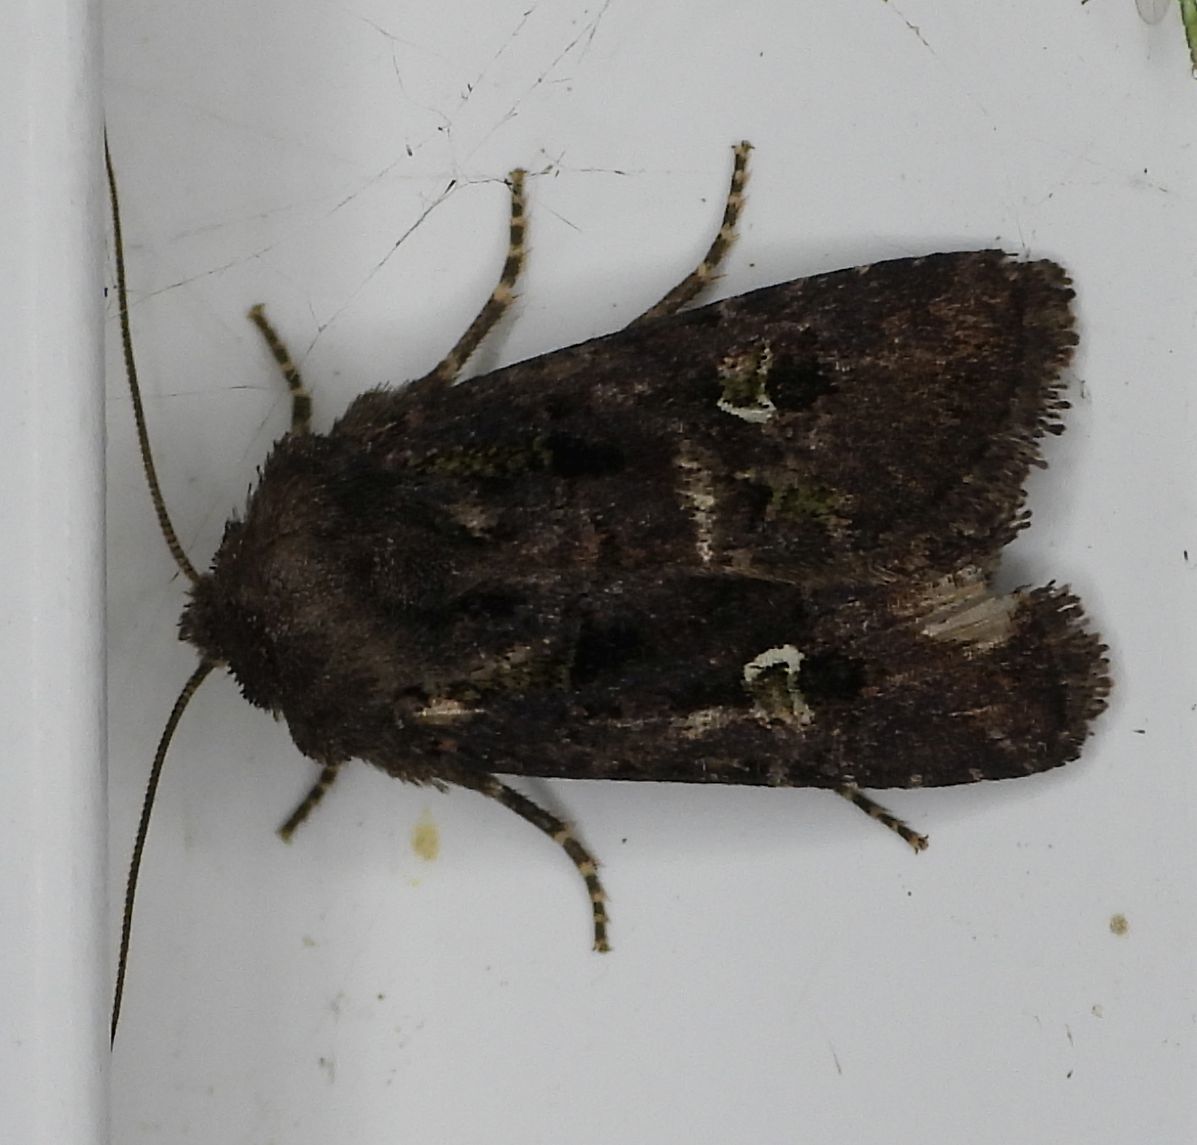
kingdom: Animalia
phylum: Arthropoda
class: Insecta
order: Lepidoptera
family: Noctuidae
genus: Lacinipolia
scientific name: Lacinipolia renigera
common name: Kidney-spotted minor
